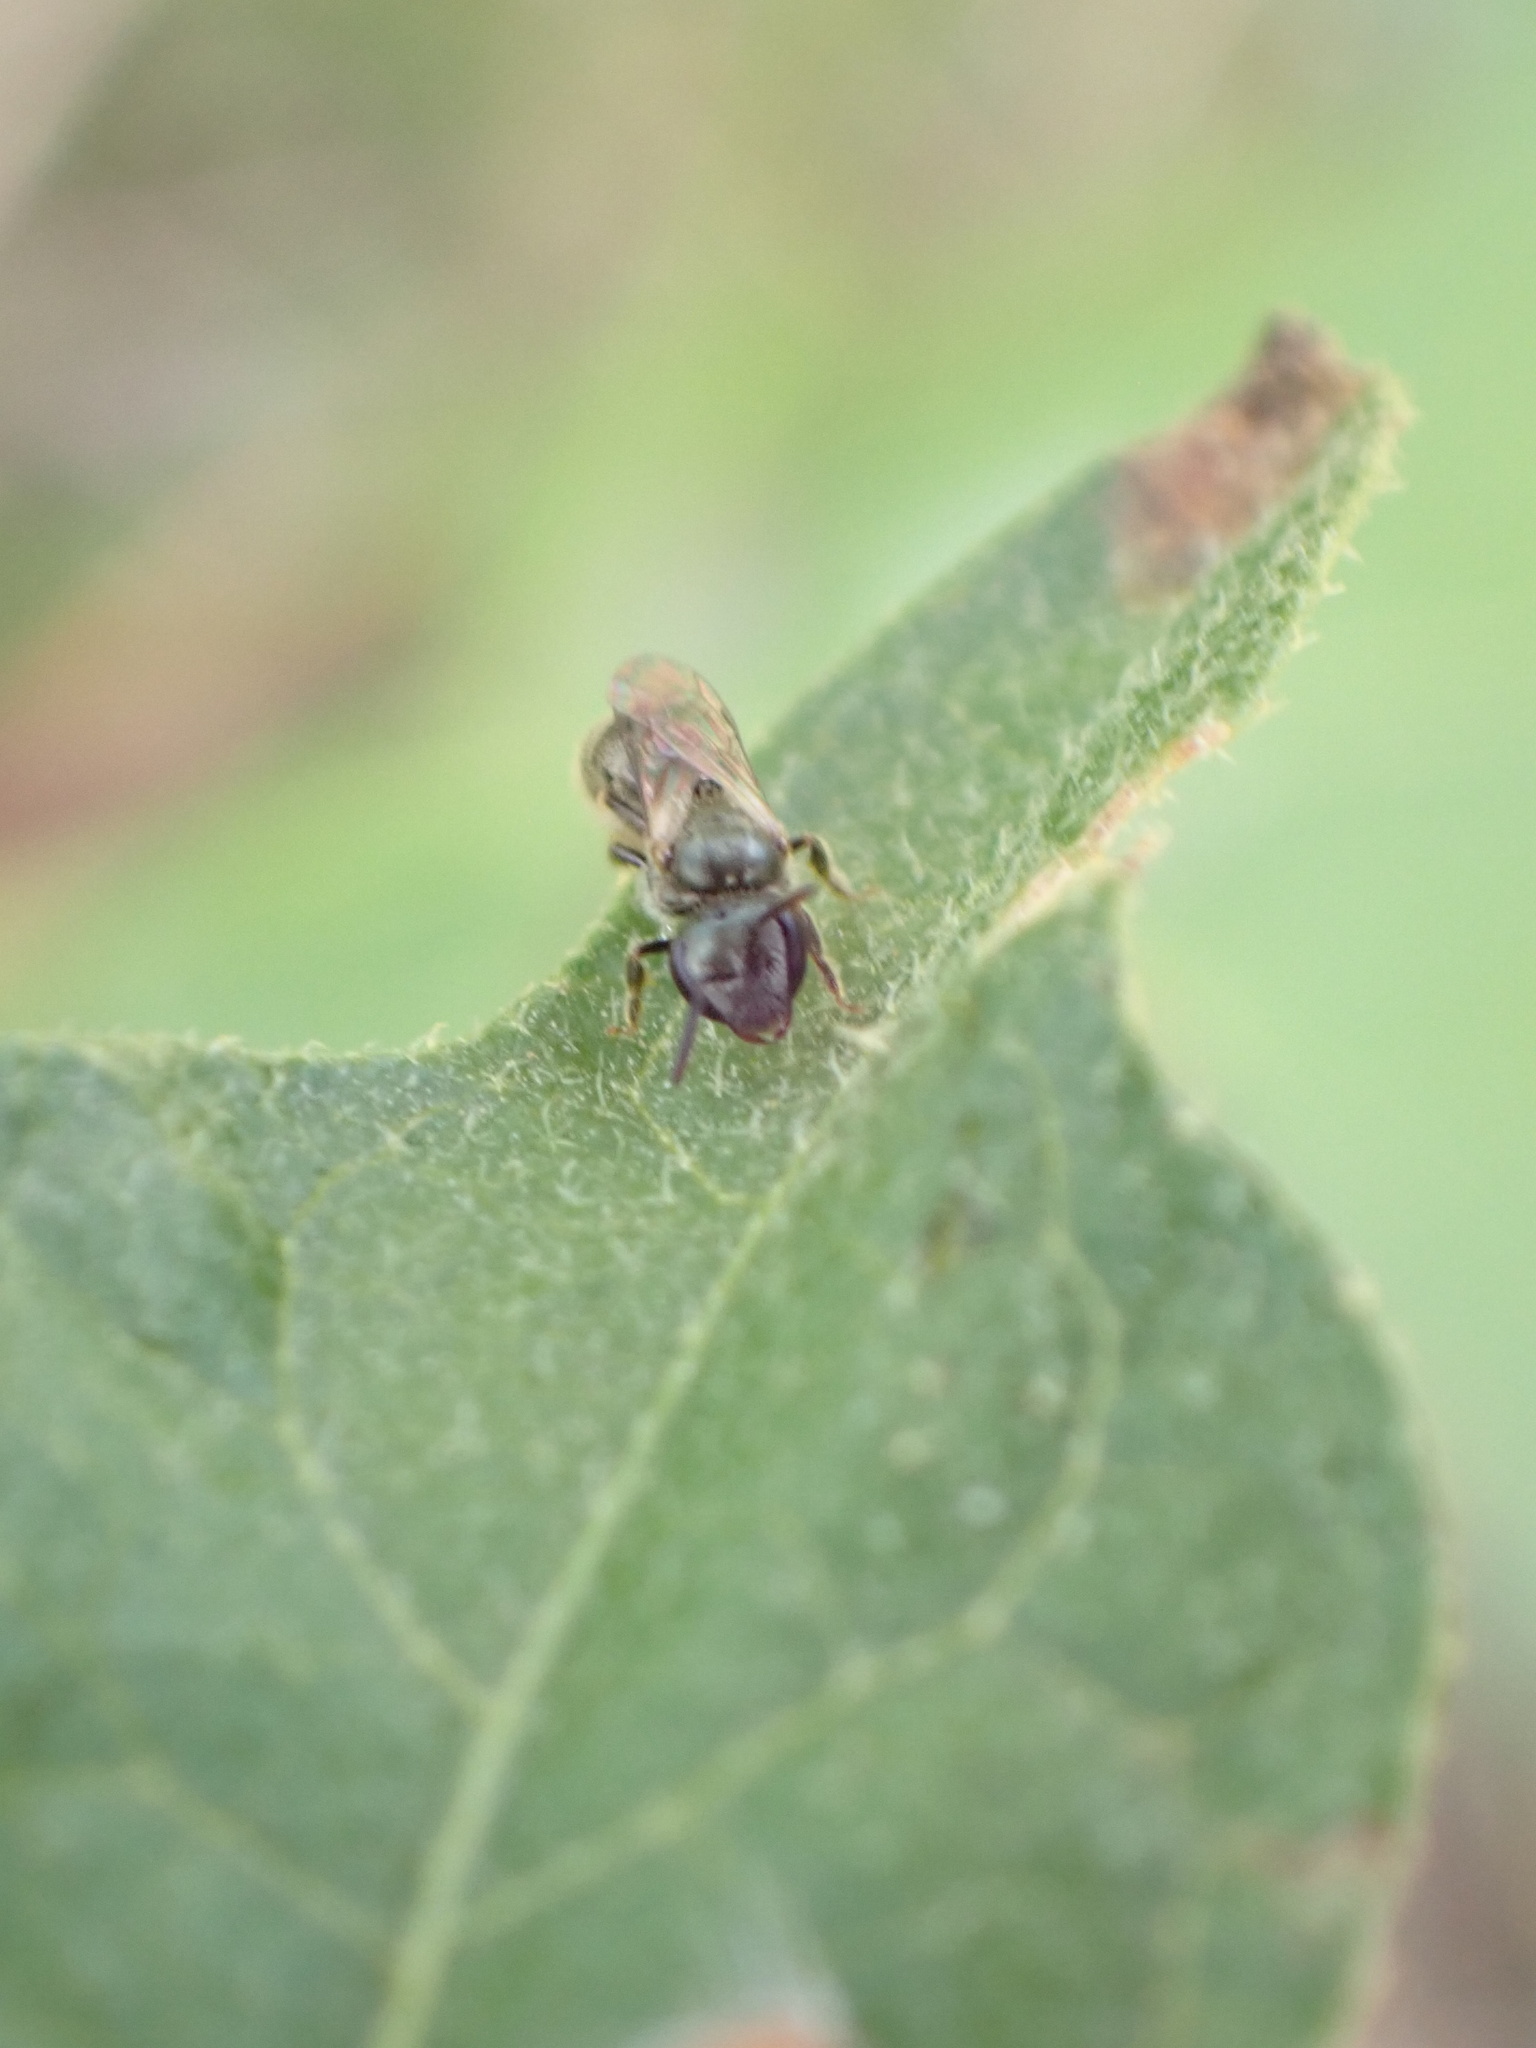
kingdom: Animalia
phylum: Arthropoda
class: Insecta
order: Hymenoptera
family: Halictidae
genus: Dialictus
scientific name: Dialictus
